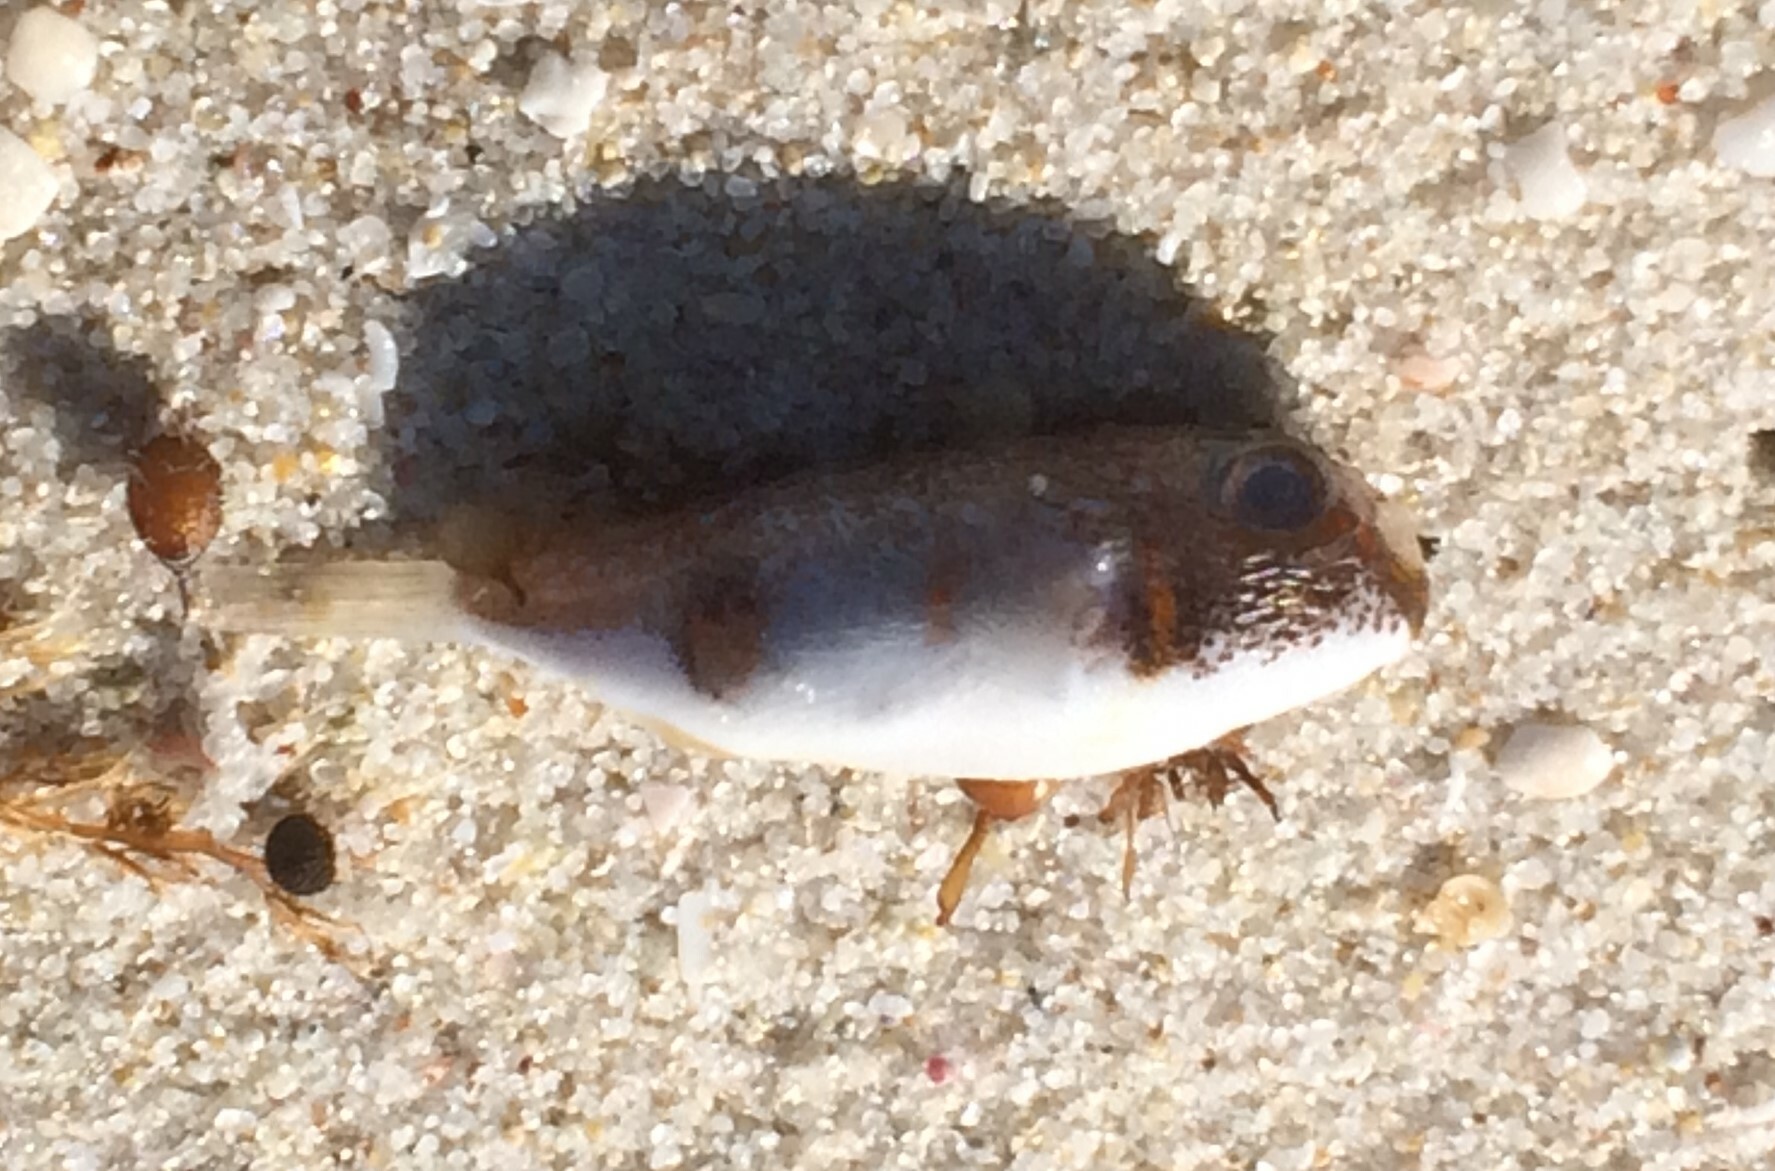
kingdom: Animalia
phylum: Chordata
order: Tetraodontiformes
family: Tetraodontidae
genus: Polyspina
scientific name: Polyspina piosae
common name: Orange-barred pufferfish
